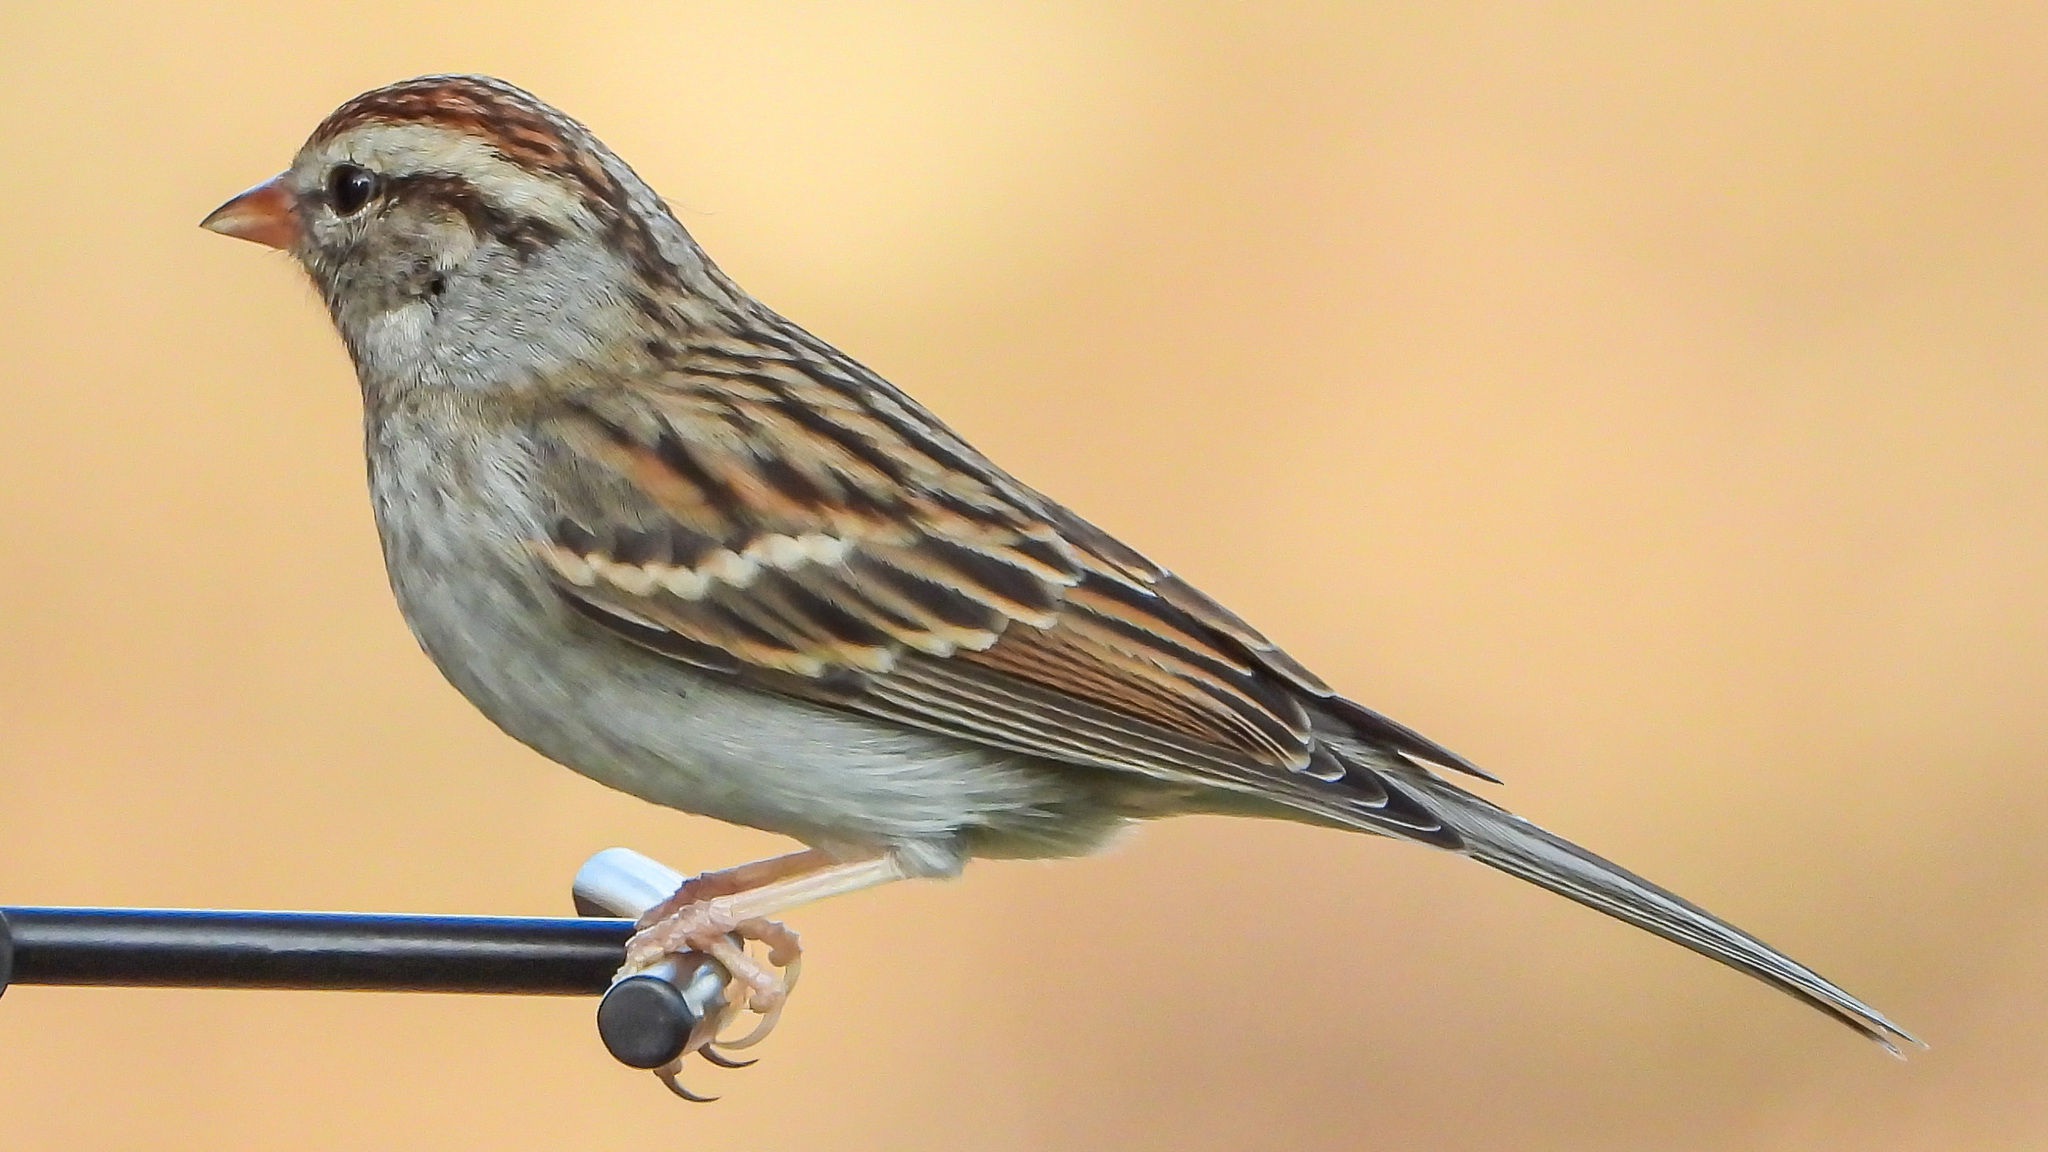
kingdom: Animalia
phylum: Chordata
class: Aves
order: Passeriformes
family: Passerellidae
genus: Spizella
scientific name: Spizella passerina
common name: Chipping sparrow
